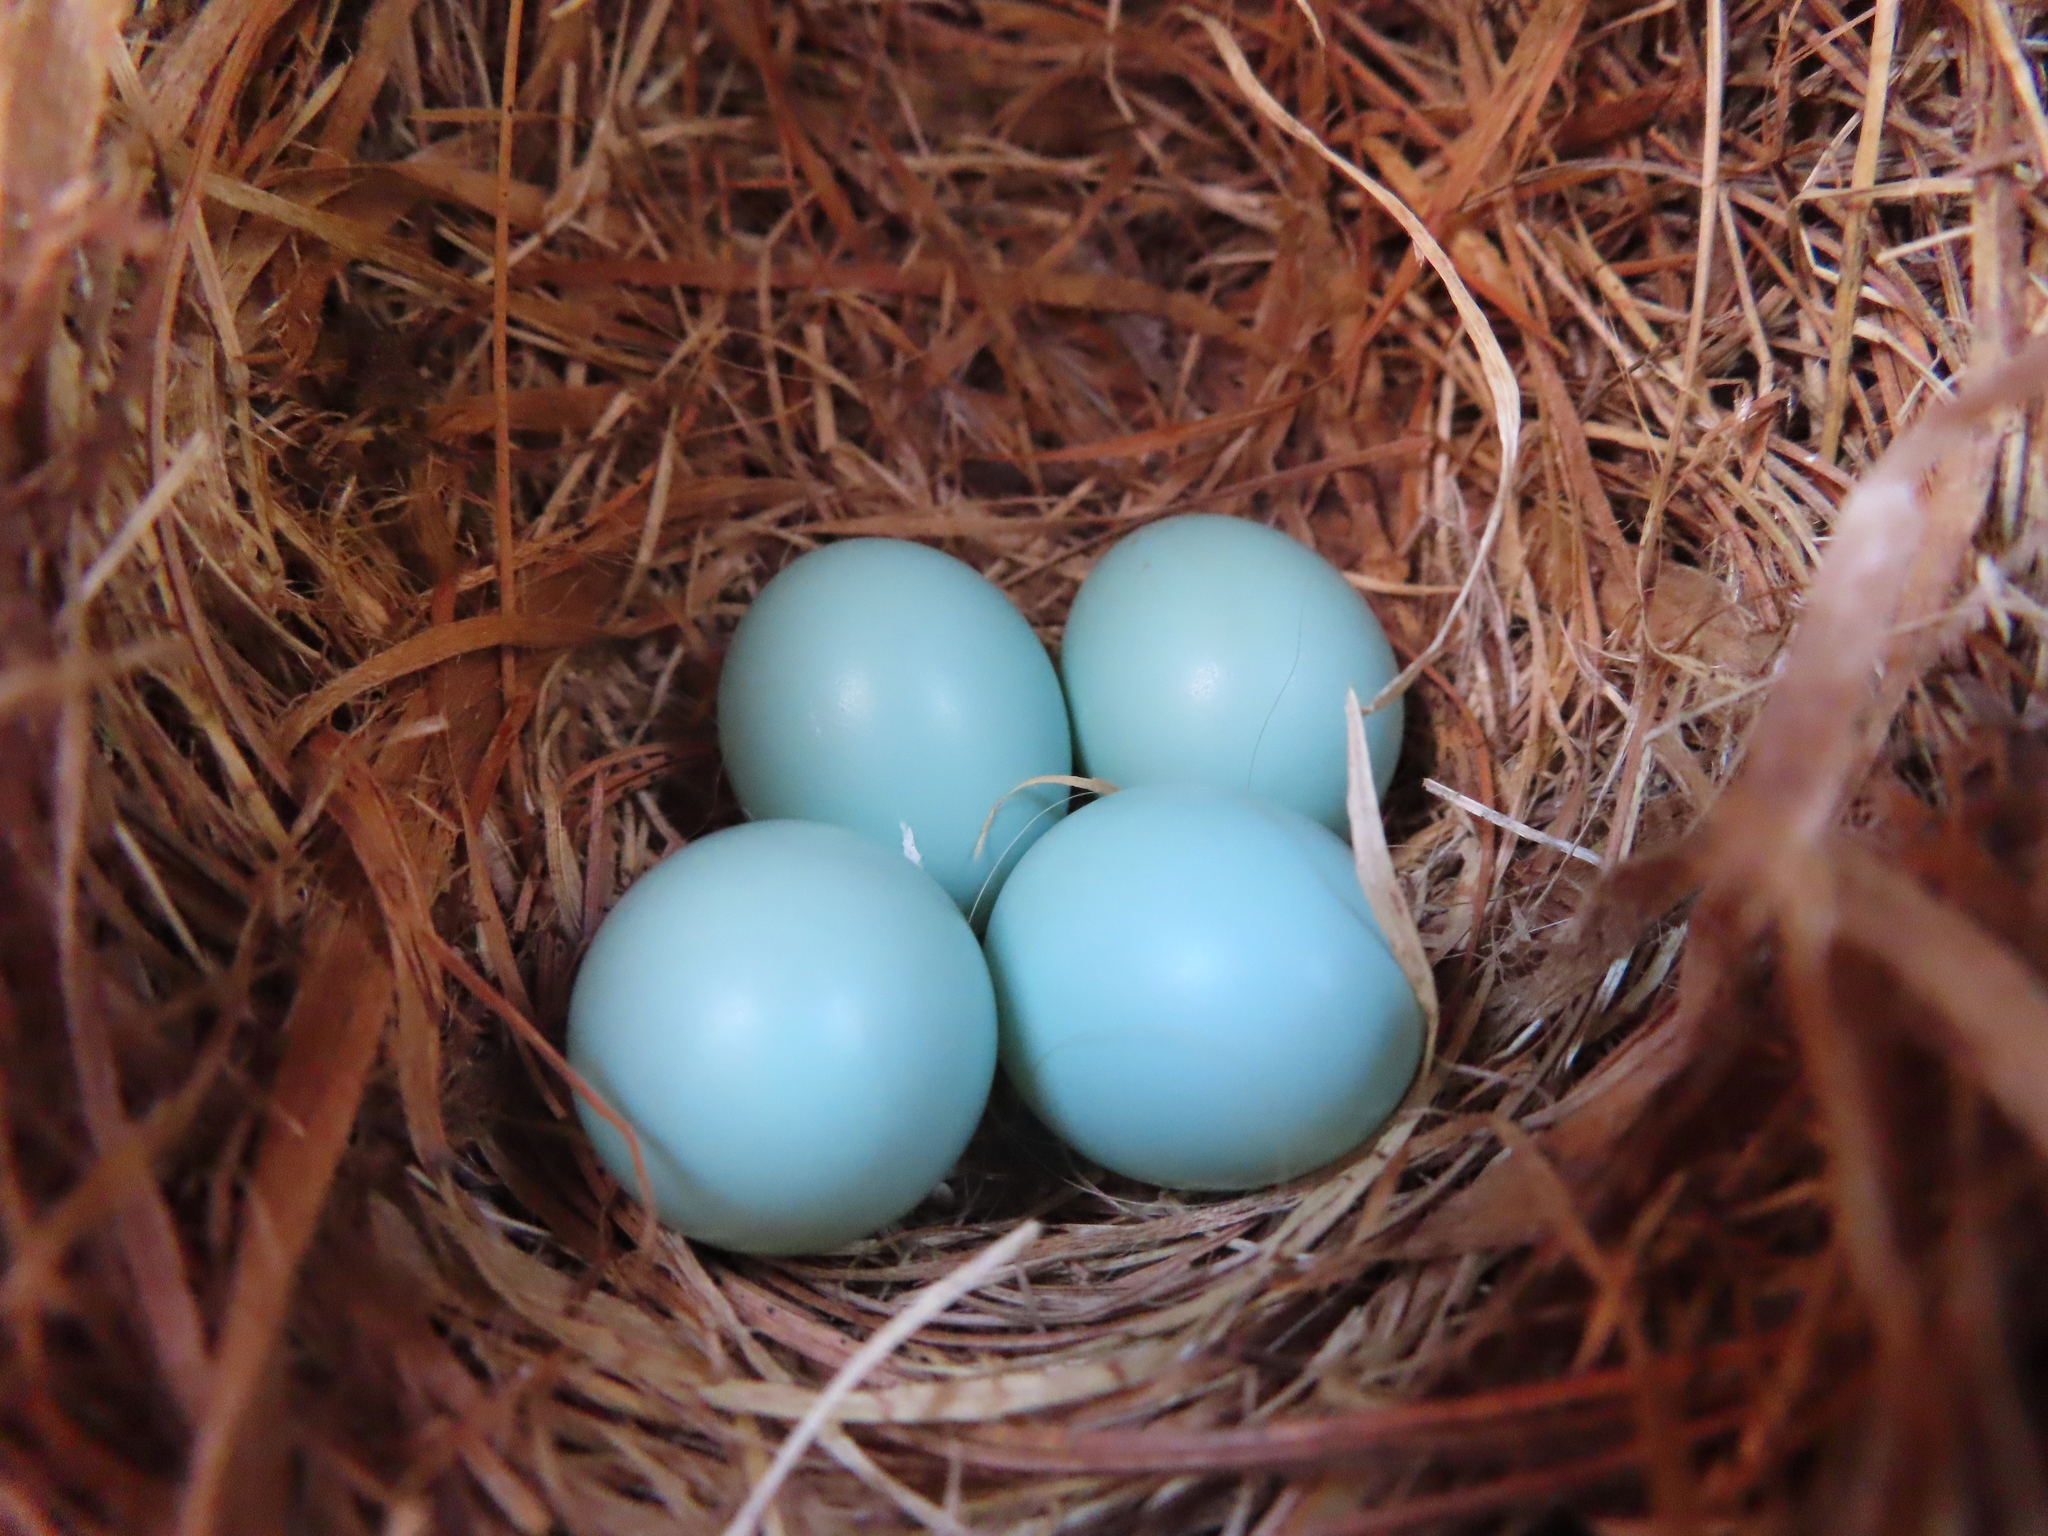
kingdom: Animalia
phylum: Chordata
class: Aves
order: Passeriformes
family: Turdidae
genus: Sialia
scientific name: Sialia sialis
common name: Eastern bluebird
